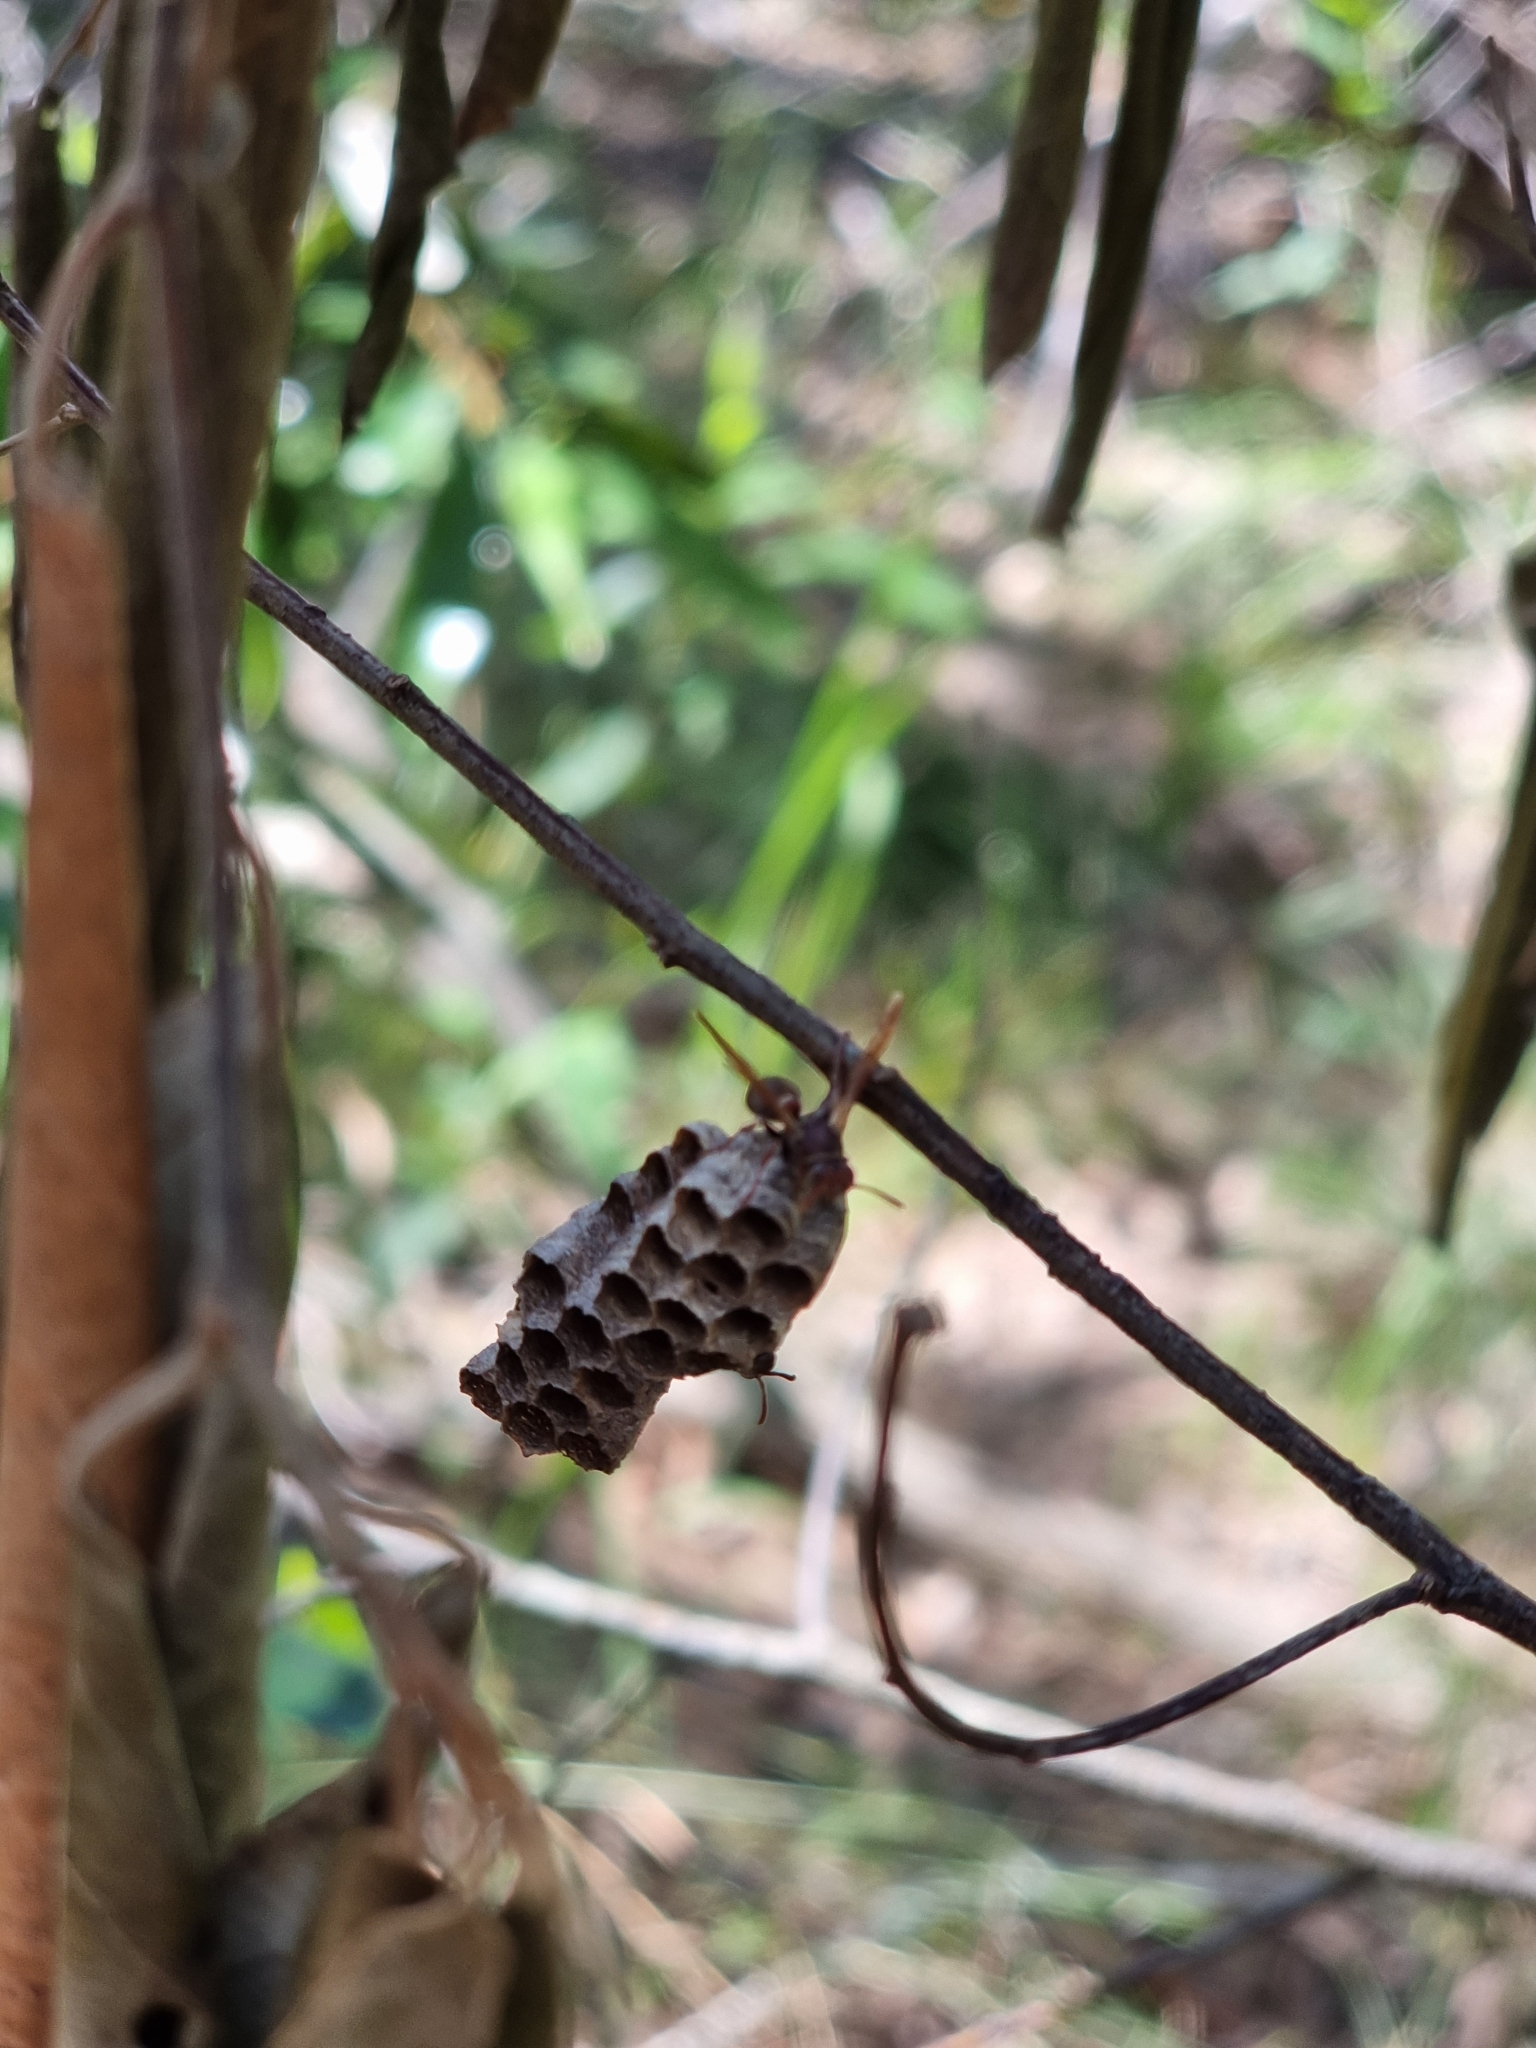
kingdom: Animalia
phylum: Arthropoda
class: Insecta
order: Hymenoptera
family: Eumenidae
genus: Polistes
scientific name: Polistes humilis
